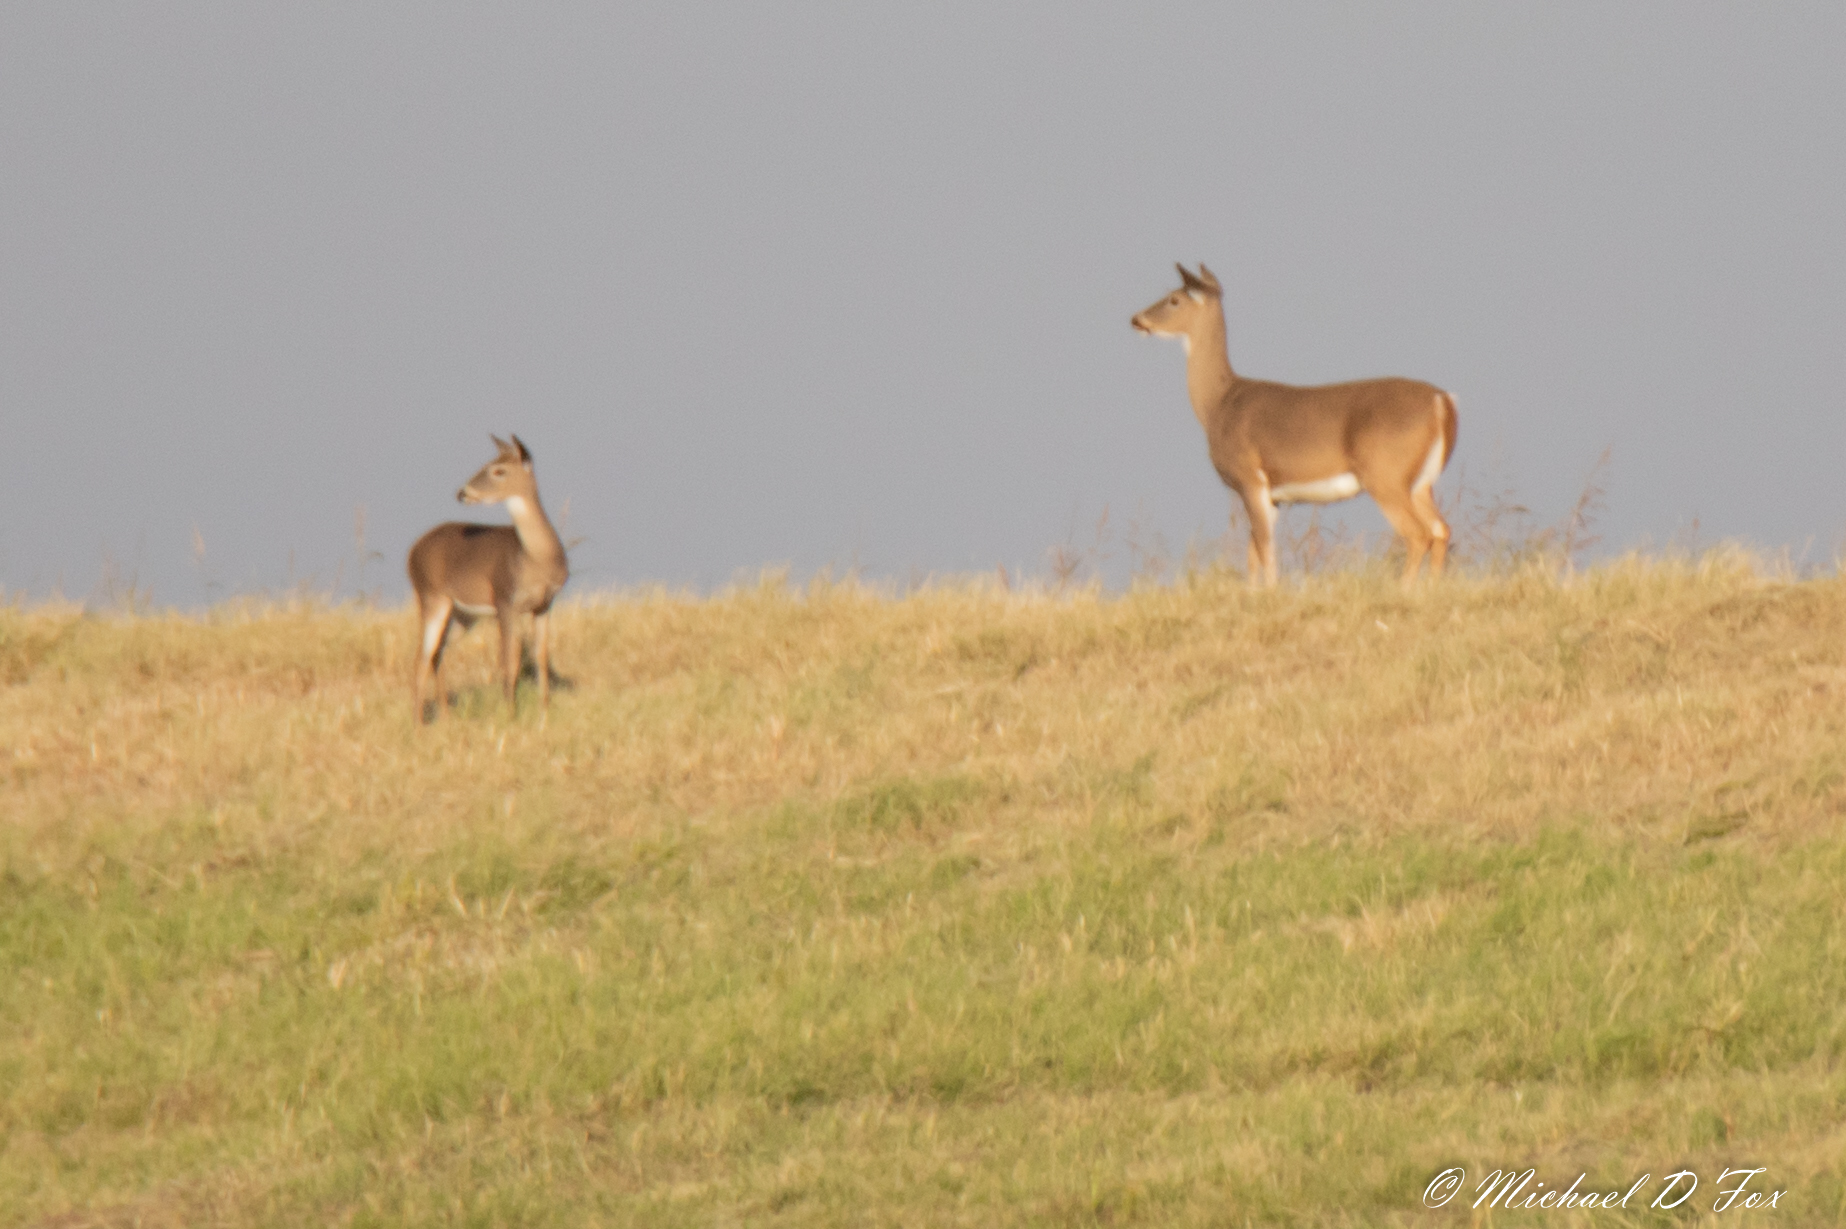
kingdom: Animalia
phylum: Chordata
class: Mammalia
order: Artiodactyla
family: Cervidae
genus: Odocoileus
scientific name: Odocoileus virginianus
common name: White-tailed deer
